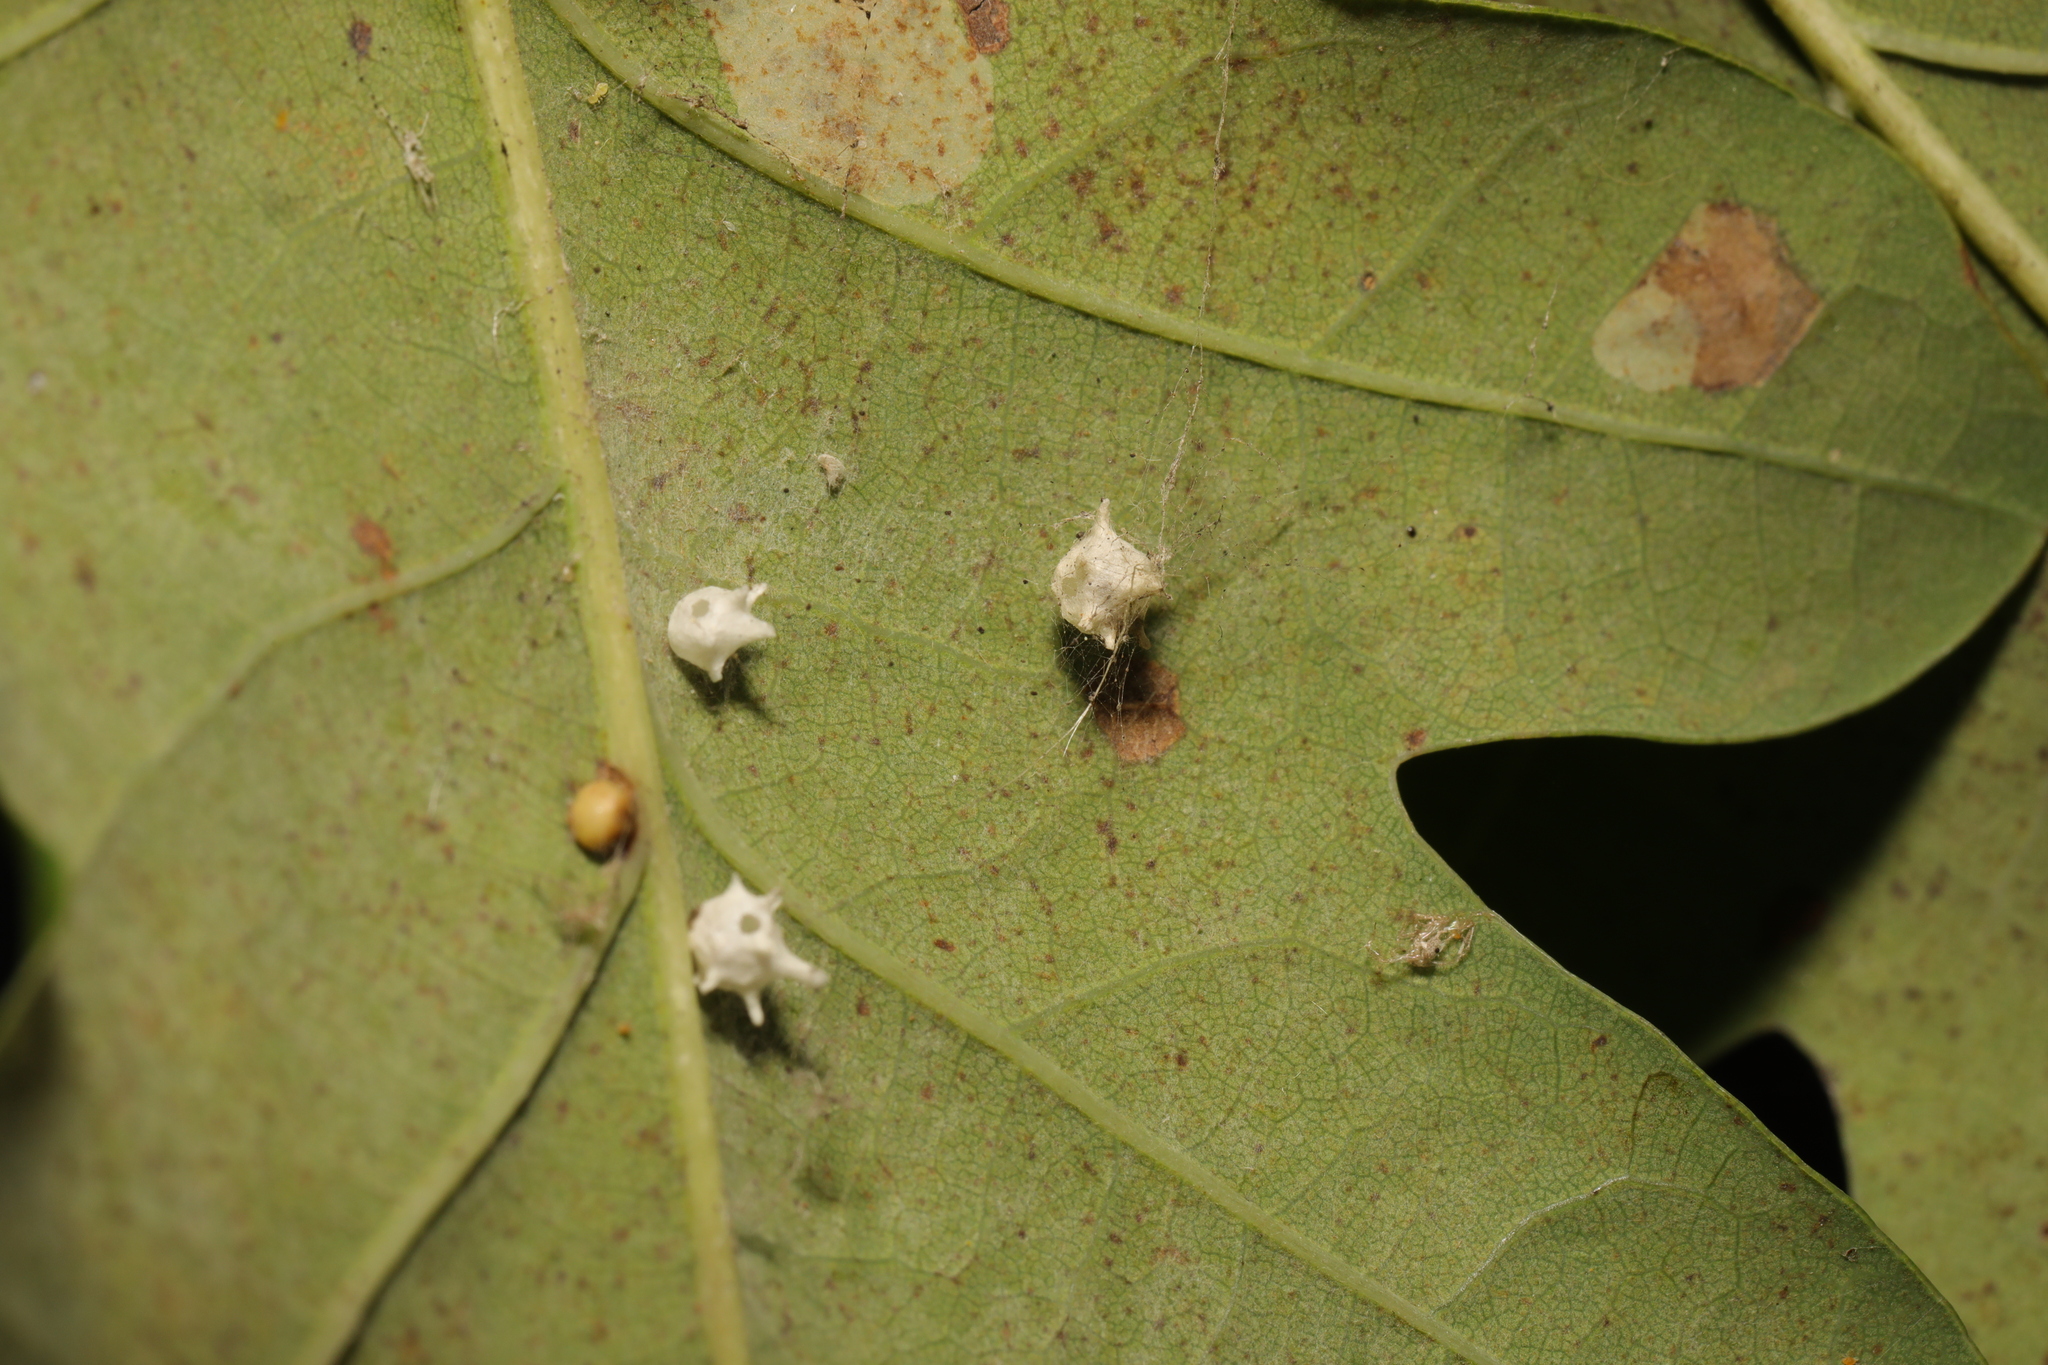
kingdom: Animalia
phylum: Arthropoda
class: Arachnida
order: Araneae
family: Theridiidae
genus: Paidiscura
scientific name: Paidiscura pallens
